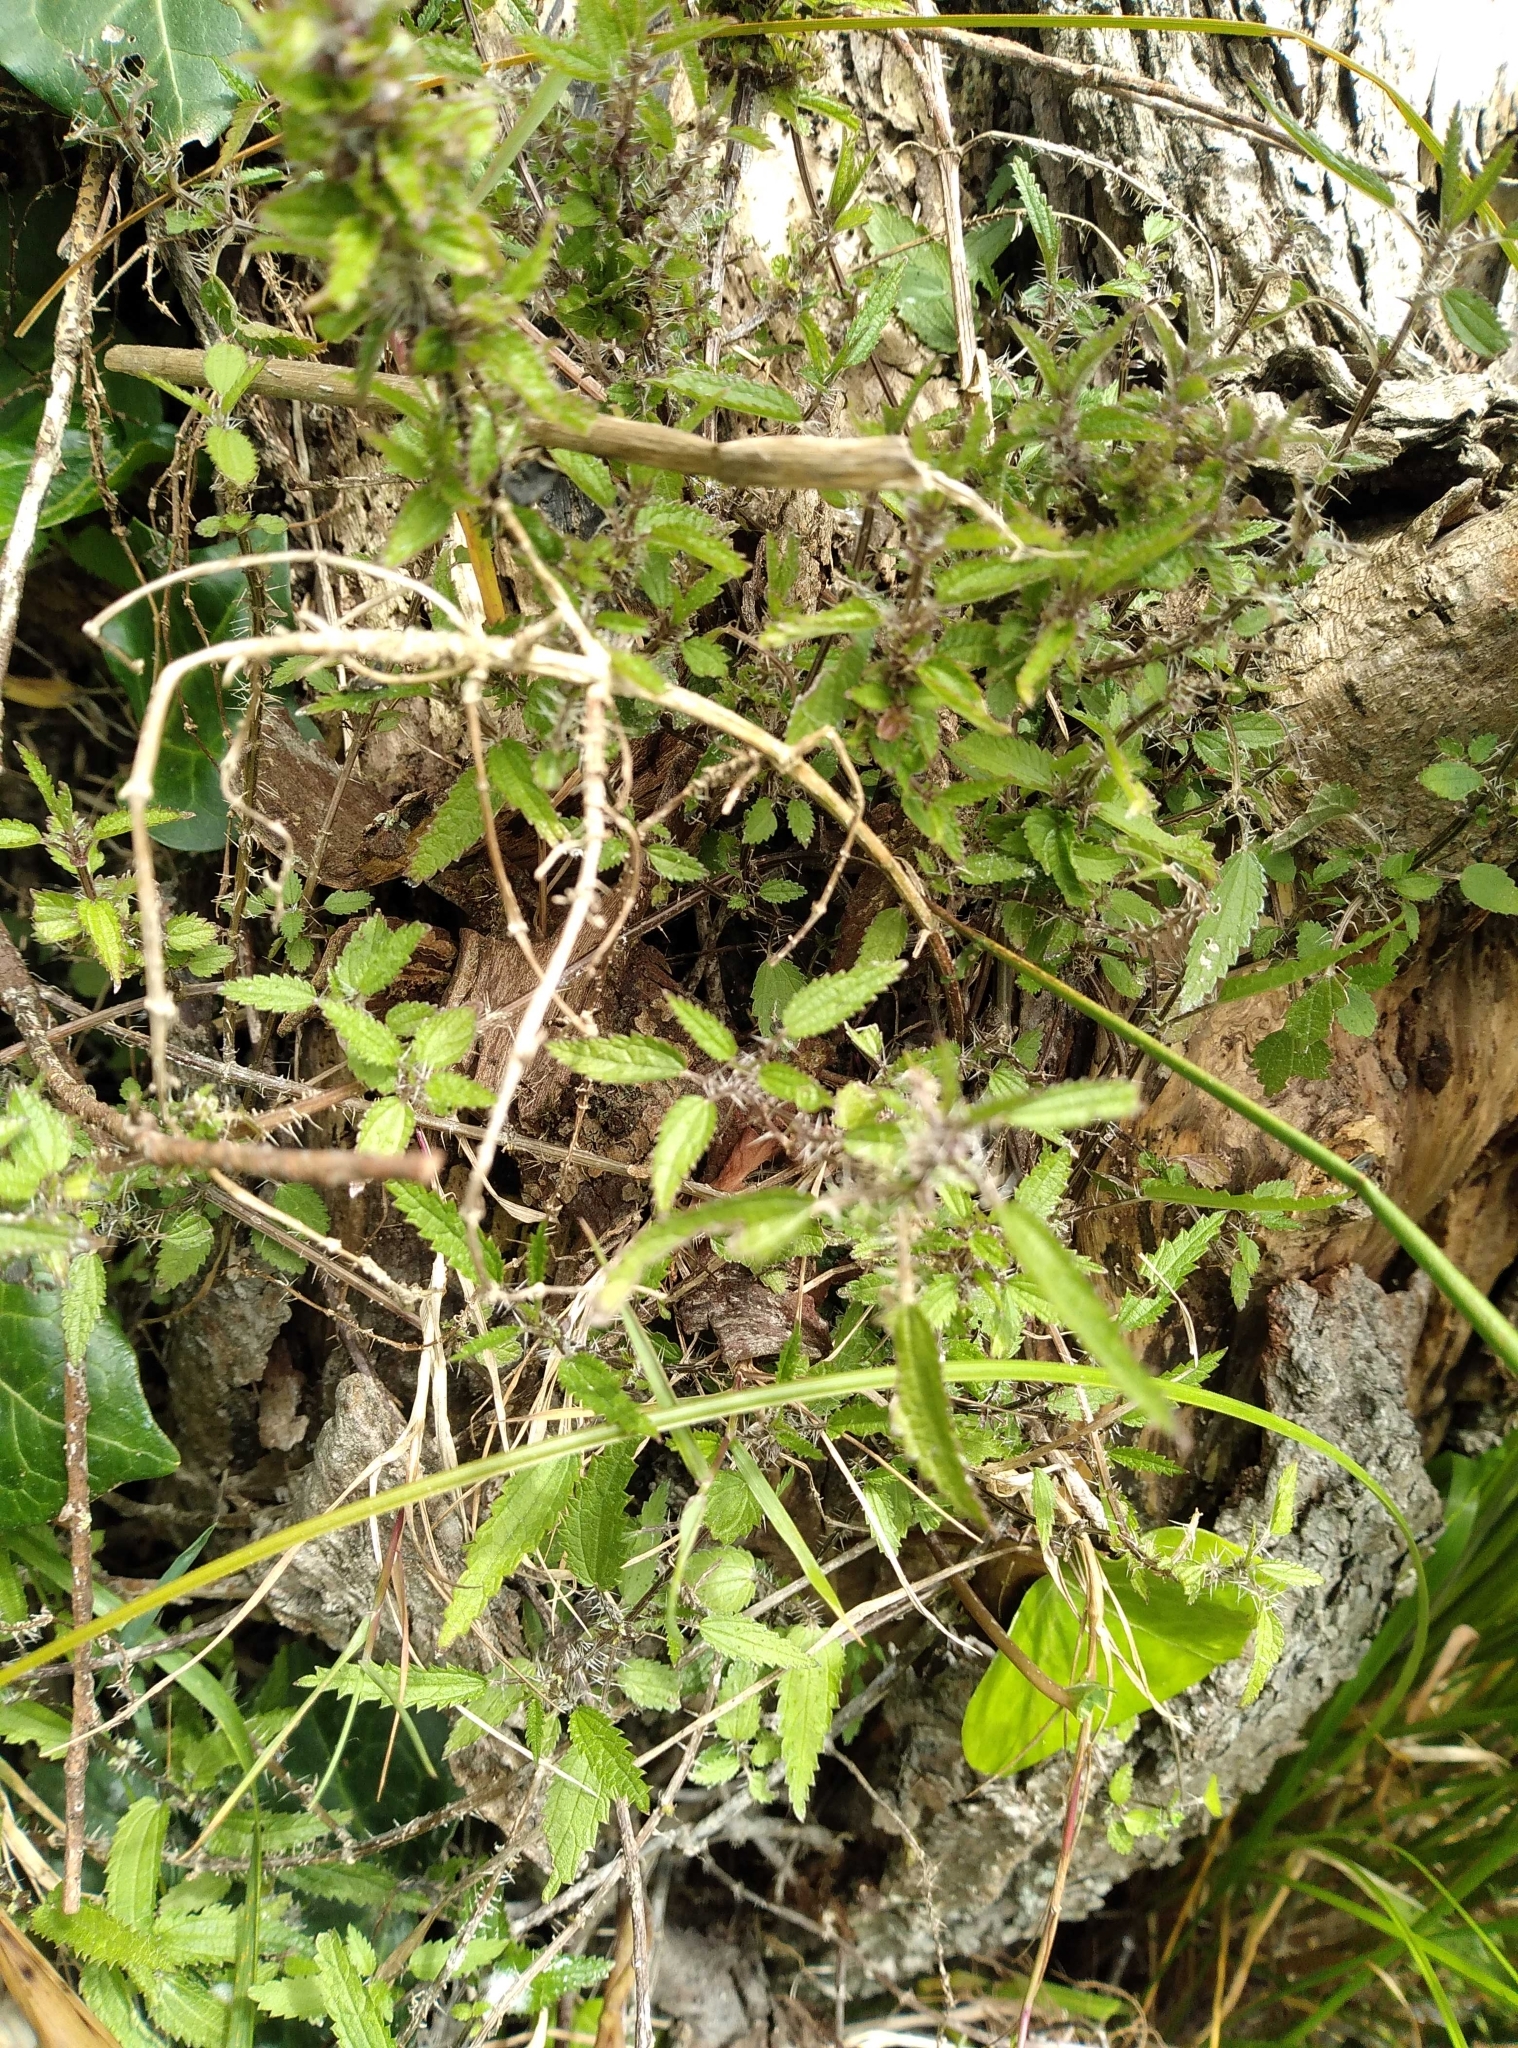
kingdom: Plantae
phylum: Tracheophyta
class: Magnoliopsida
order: Rosales
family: Urticaceae
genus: Urtica
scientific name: Urtica perconfusa
